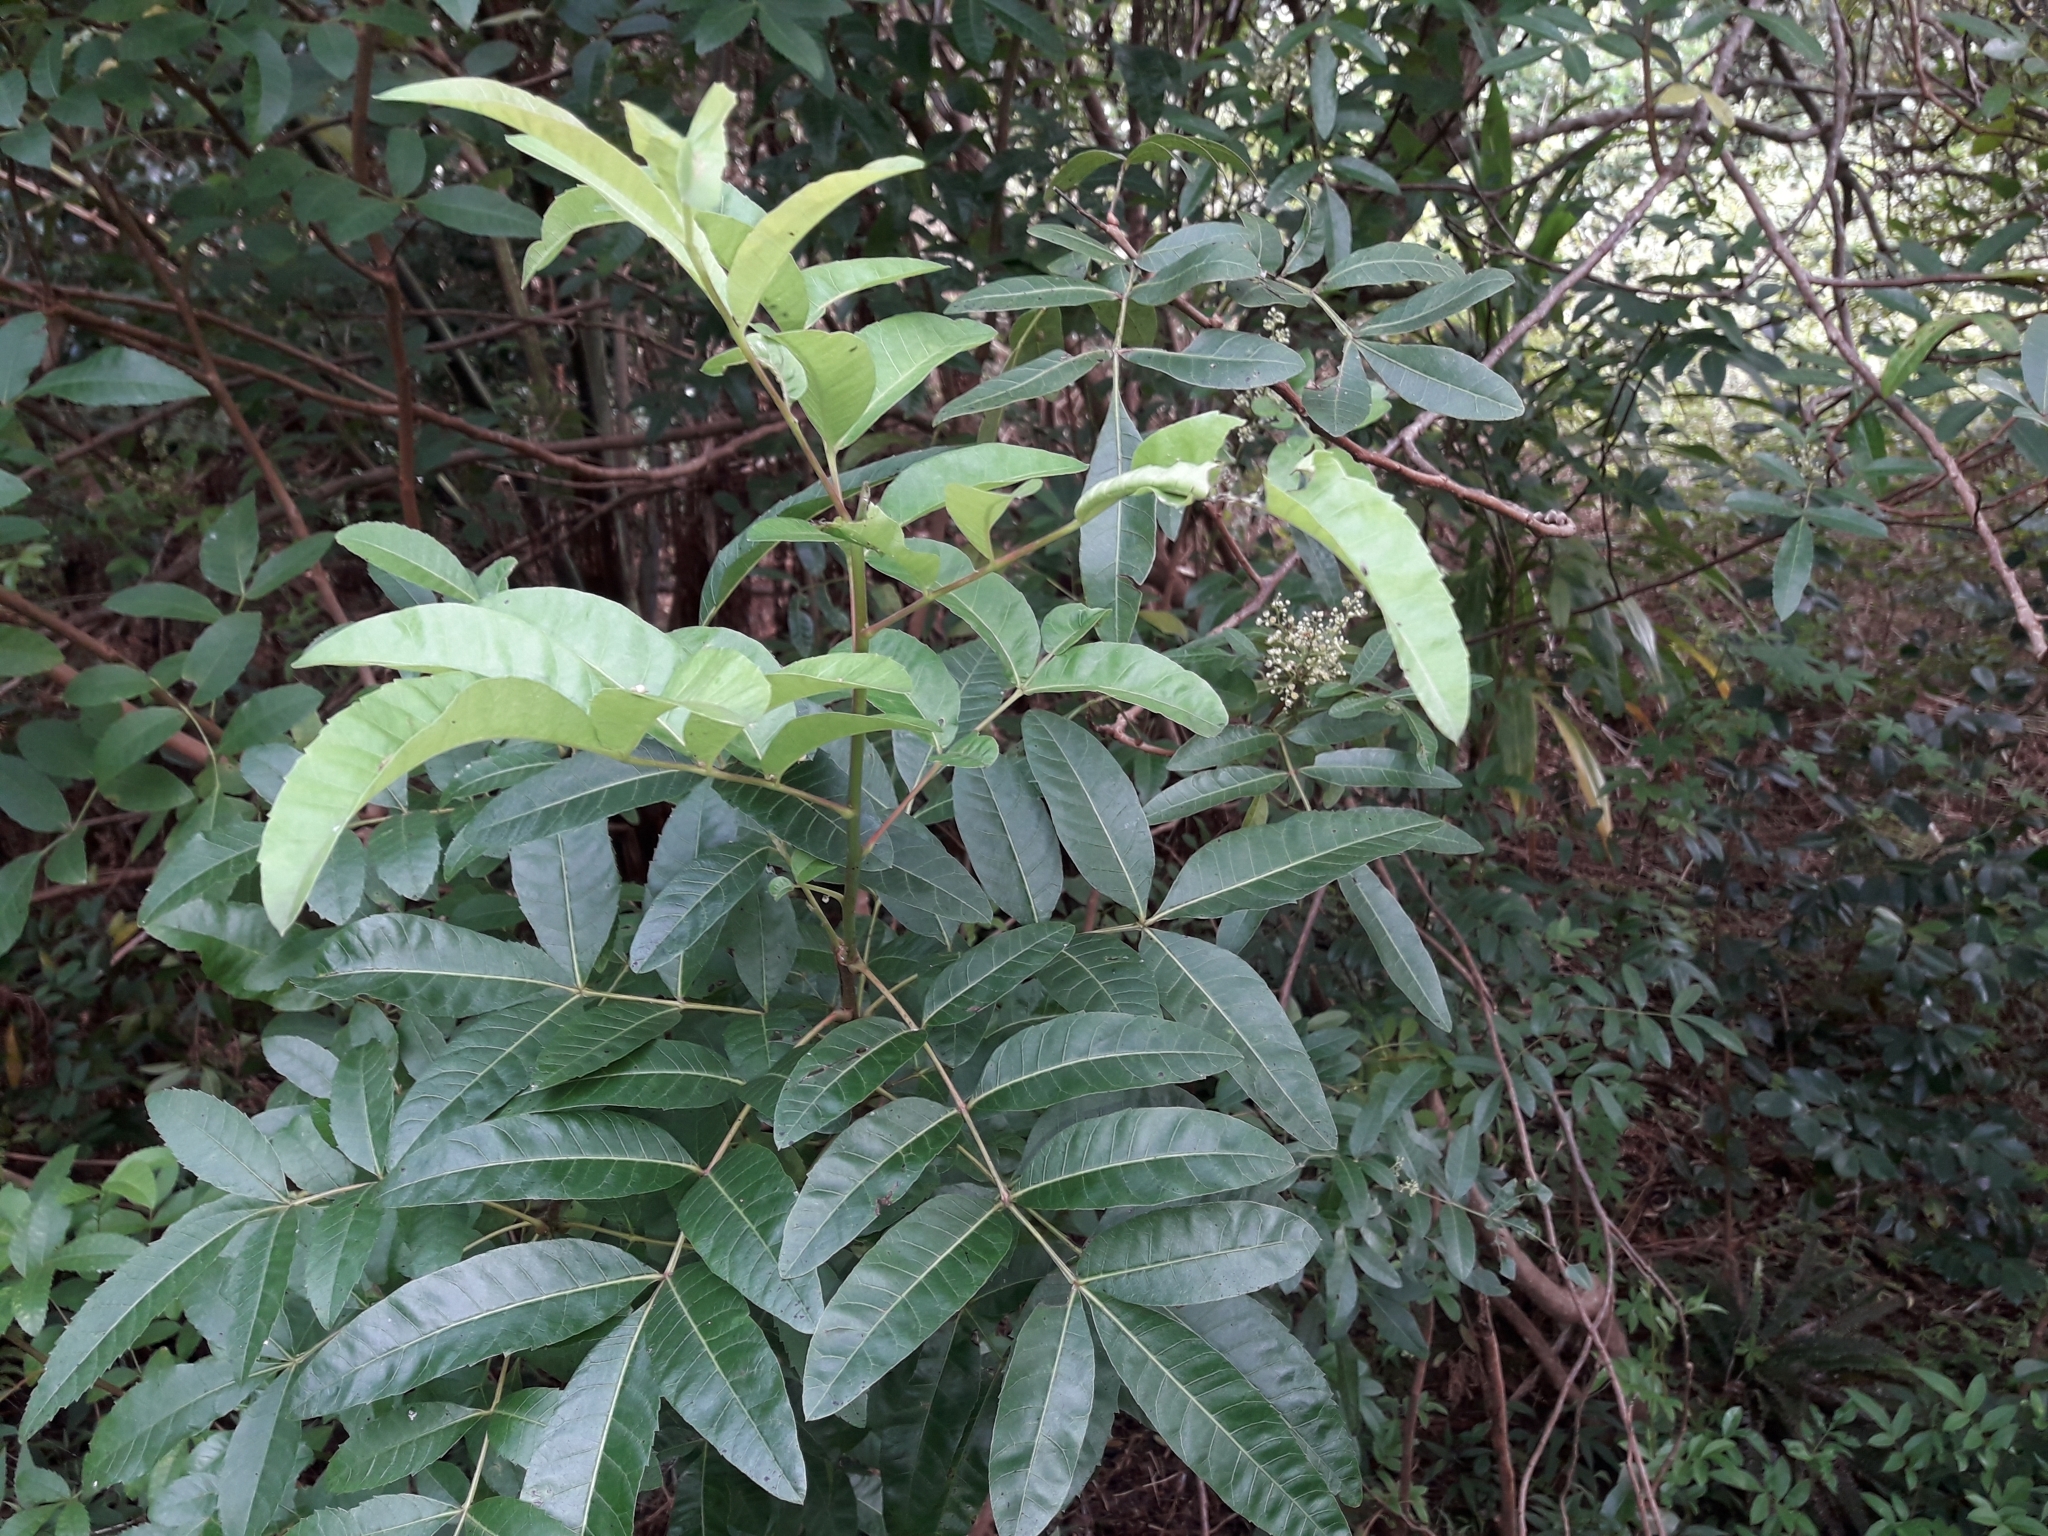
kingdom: Plantae
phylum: Tracheophyta
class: Magnoliopsida
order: Sapindales
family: Anacardiaceae
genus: Schinus
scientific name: Schinus terebinthifolia
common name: Brazilian peppertree
